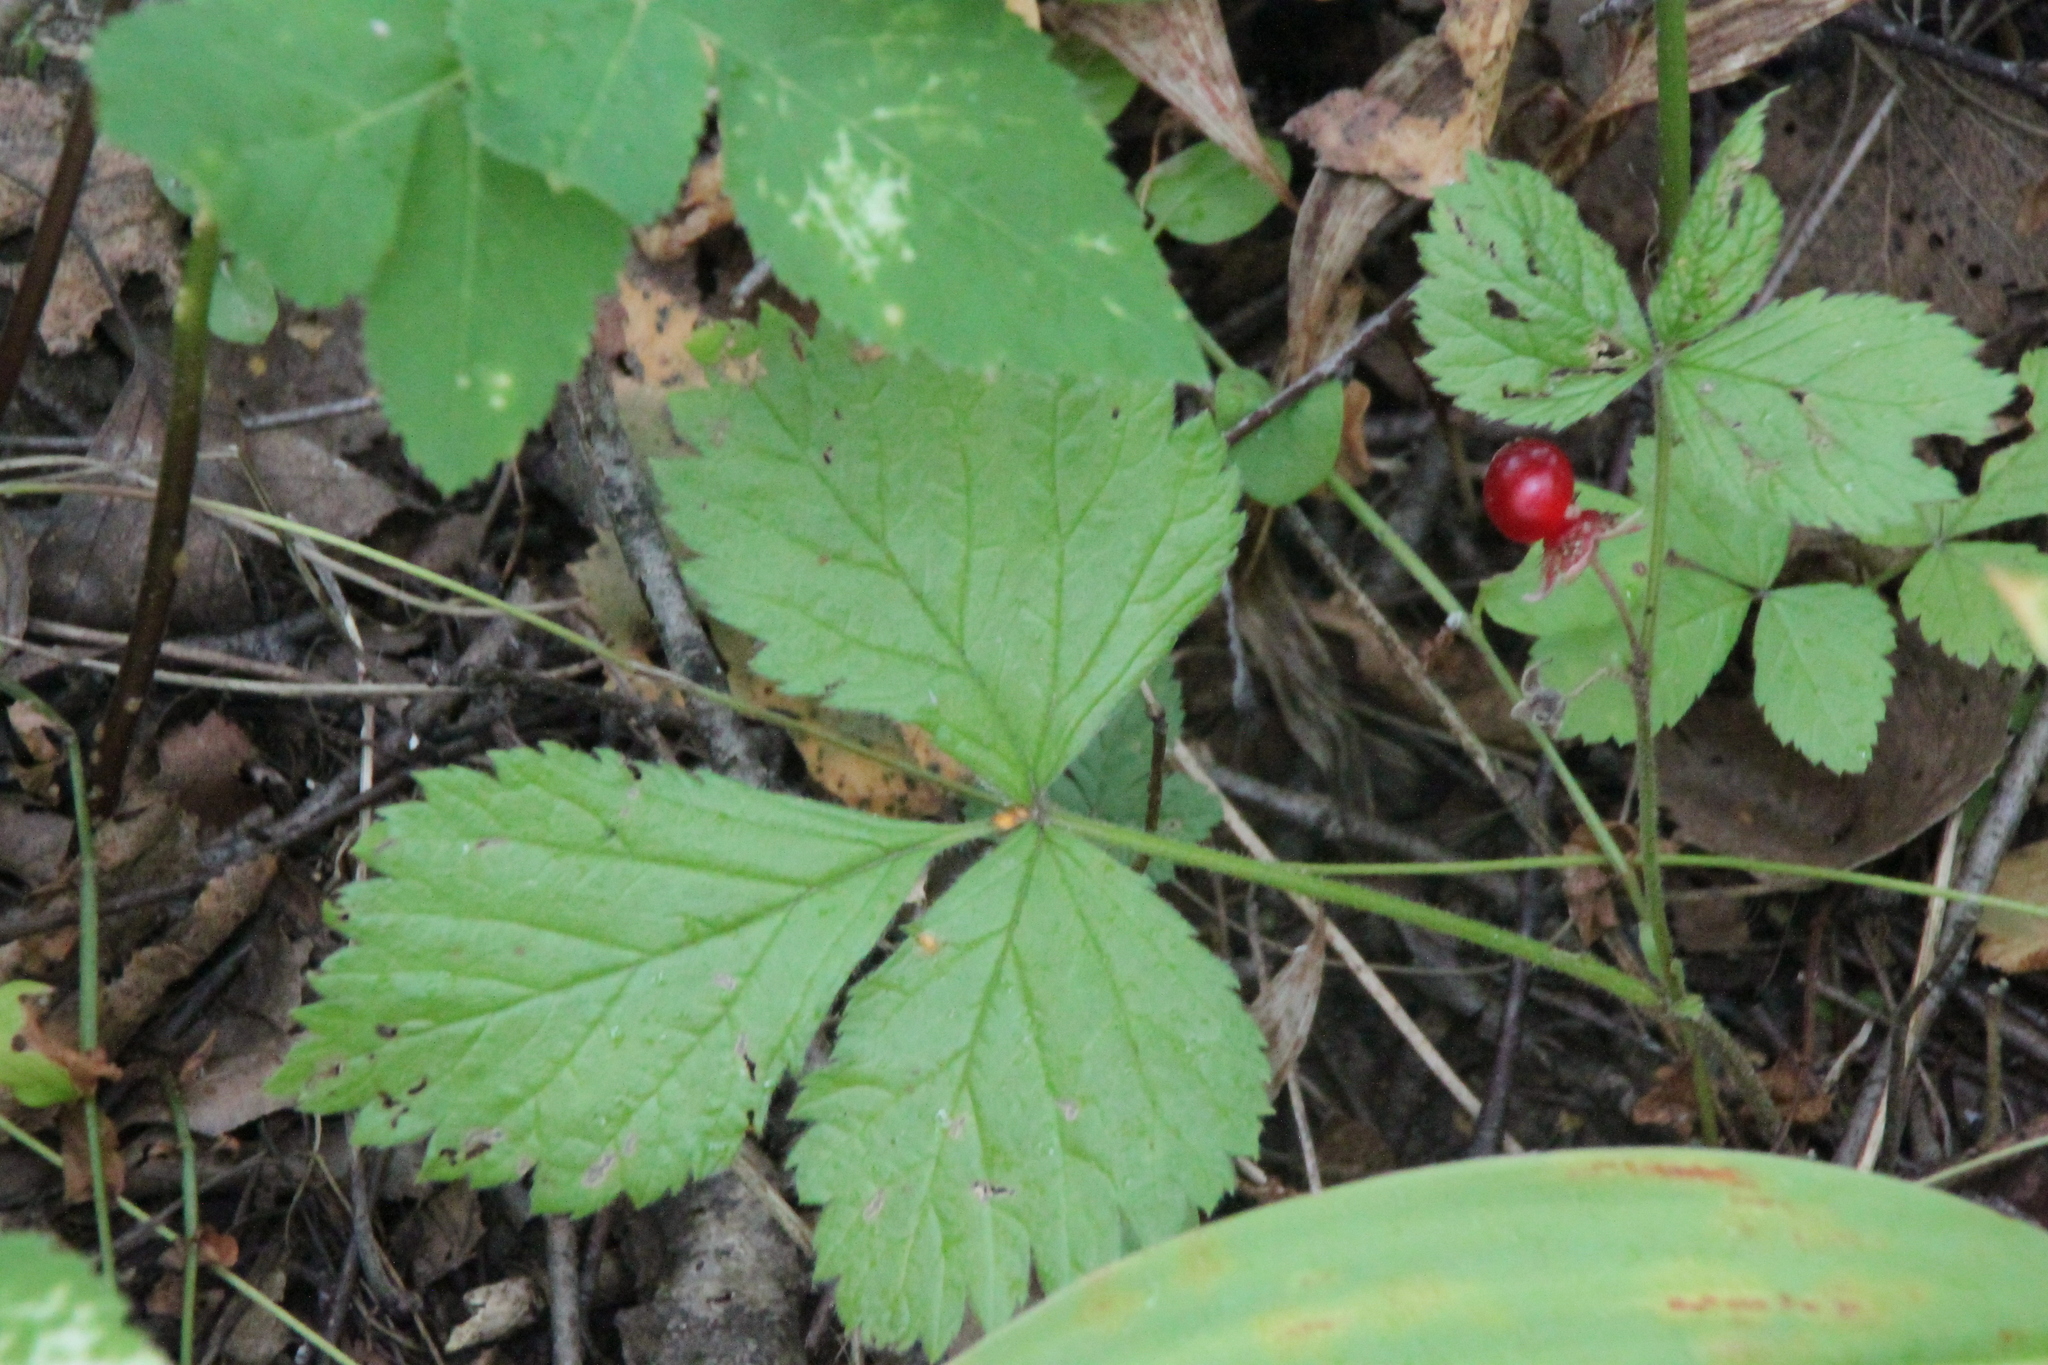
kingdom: Plantae
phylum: Tracheophyta
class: Magnoliopsida
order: Rosales
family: Rosaceae
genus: Rubus
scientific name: Rubus saxatilis
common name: Stone bramble
